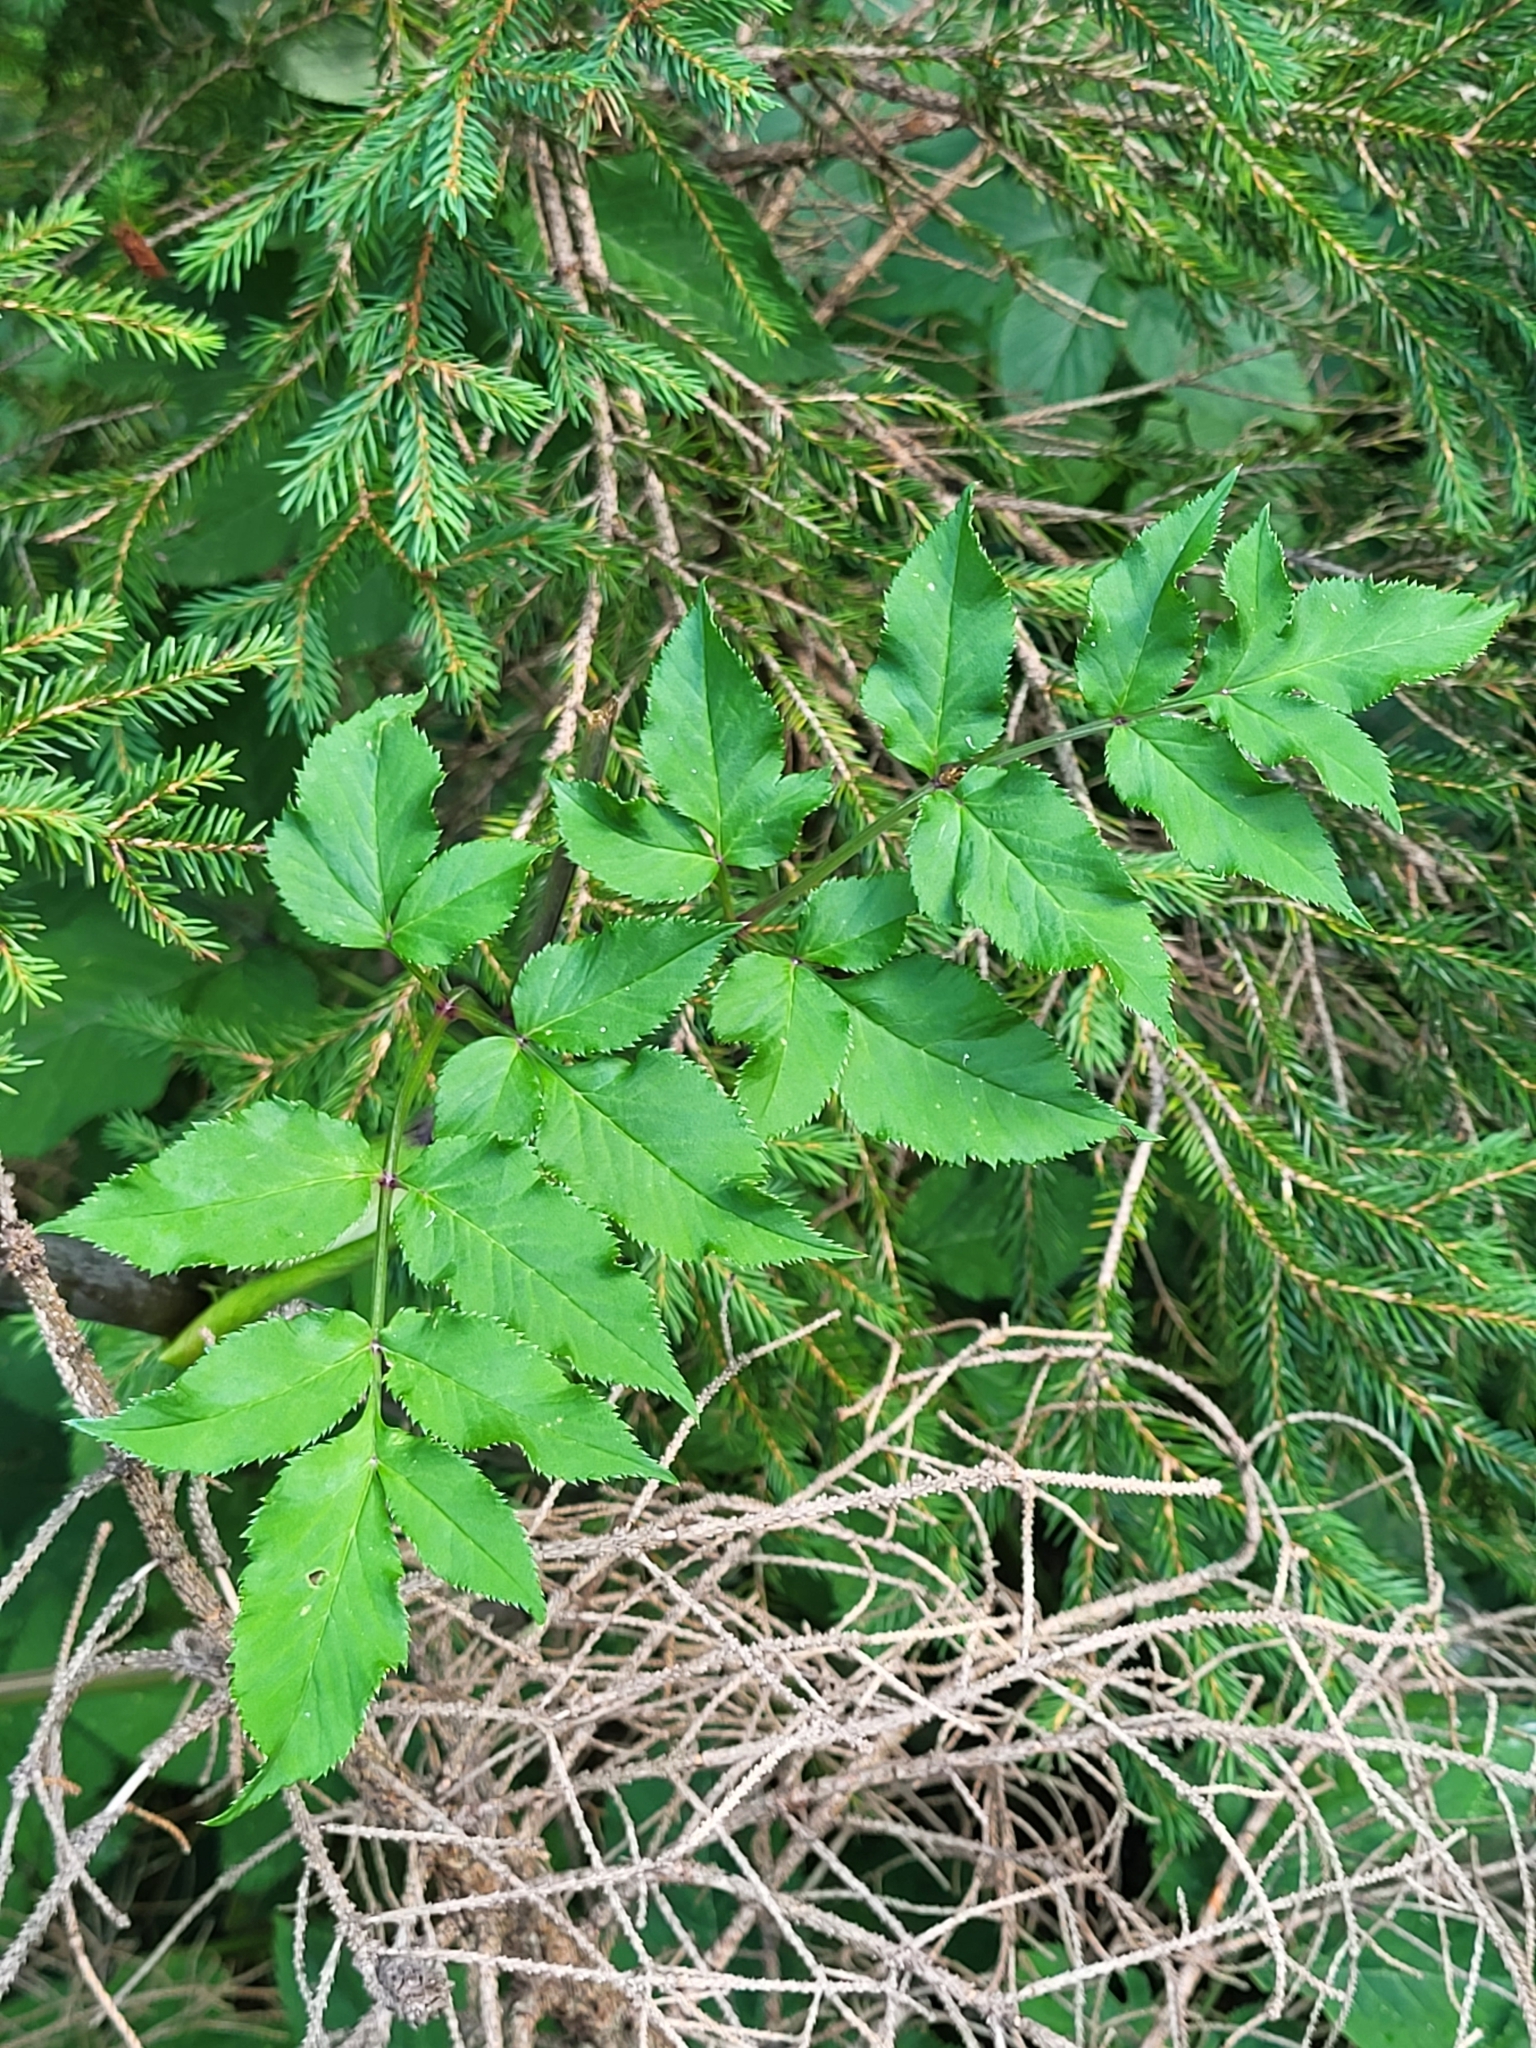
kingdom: Plantae
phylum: Tracheophyta
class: Magnoliopsida
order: Apiales
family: Apiaceae
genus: Angelica
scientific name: Angelica sylvestris
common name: Wild angelica
